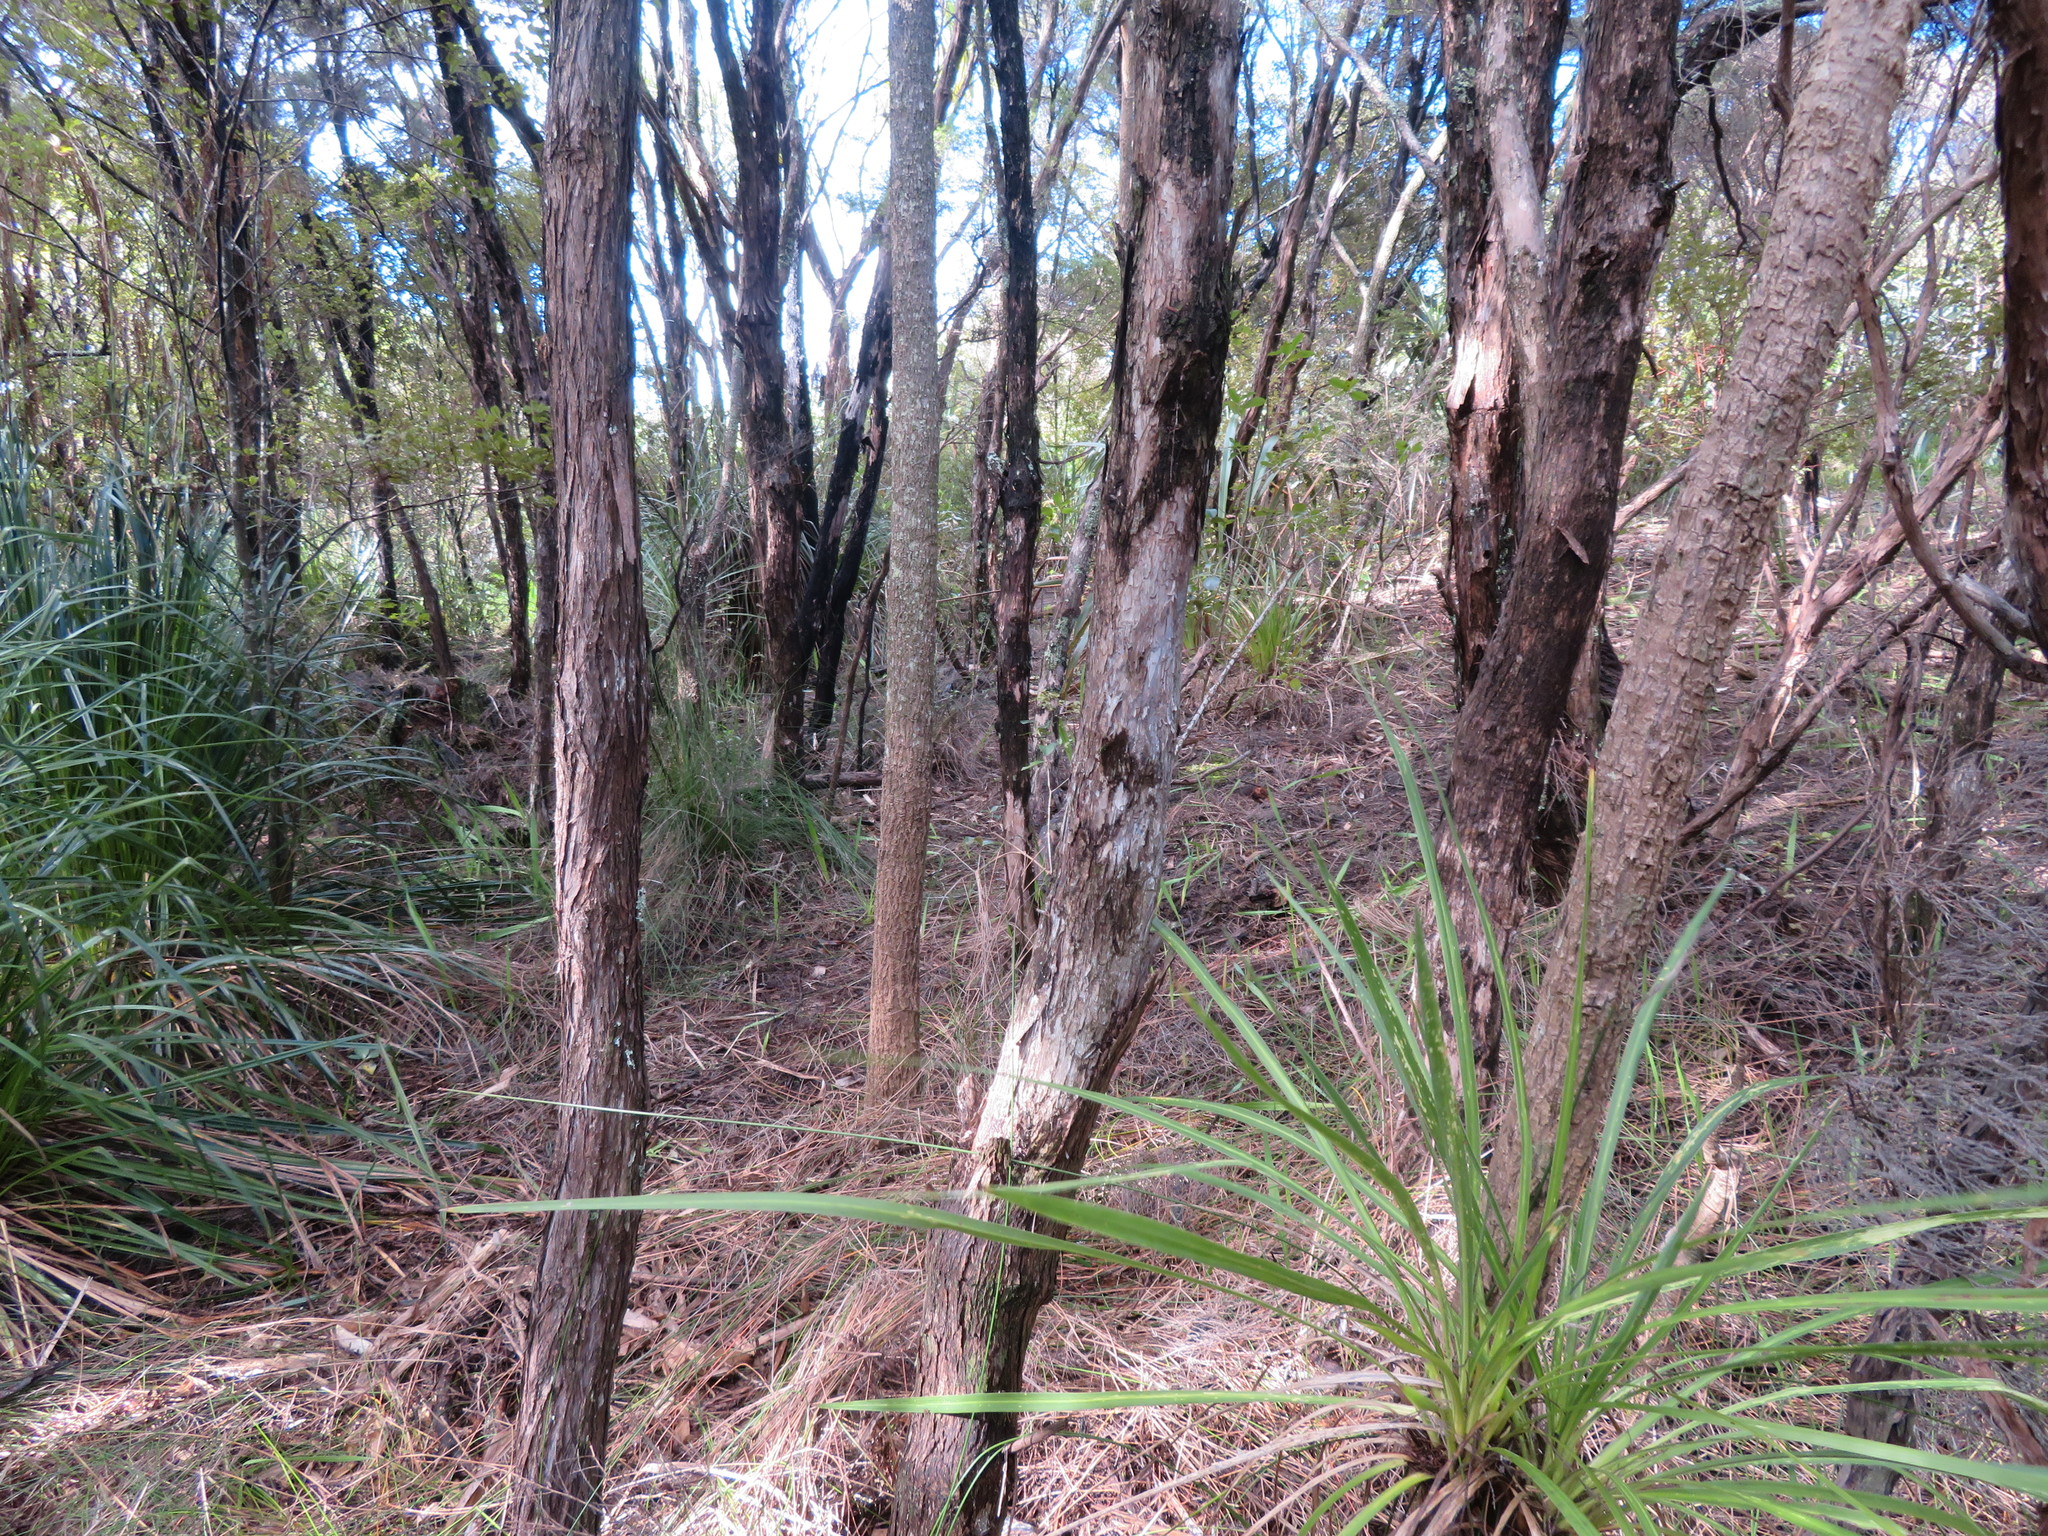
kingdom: Plantae
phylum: Tracheophyta
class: Liliopsida
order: Asparagales
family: Asparagaceae
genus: Cordyline
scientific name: Cordyline australis
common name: Cabbage-palm
